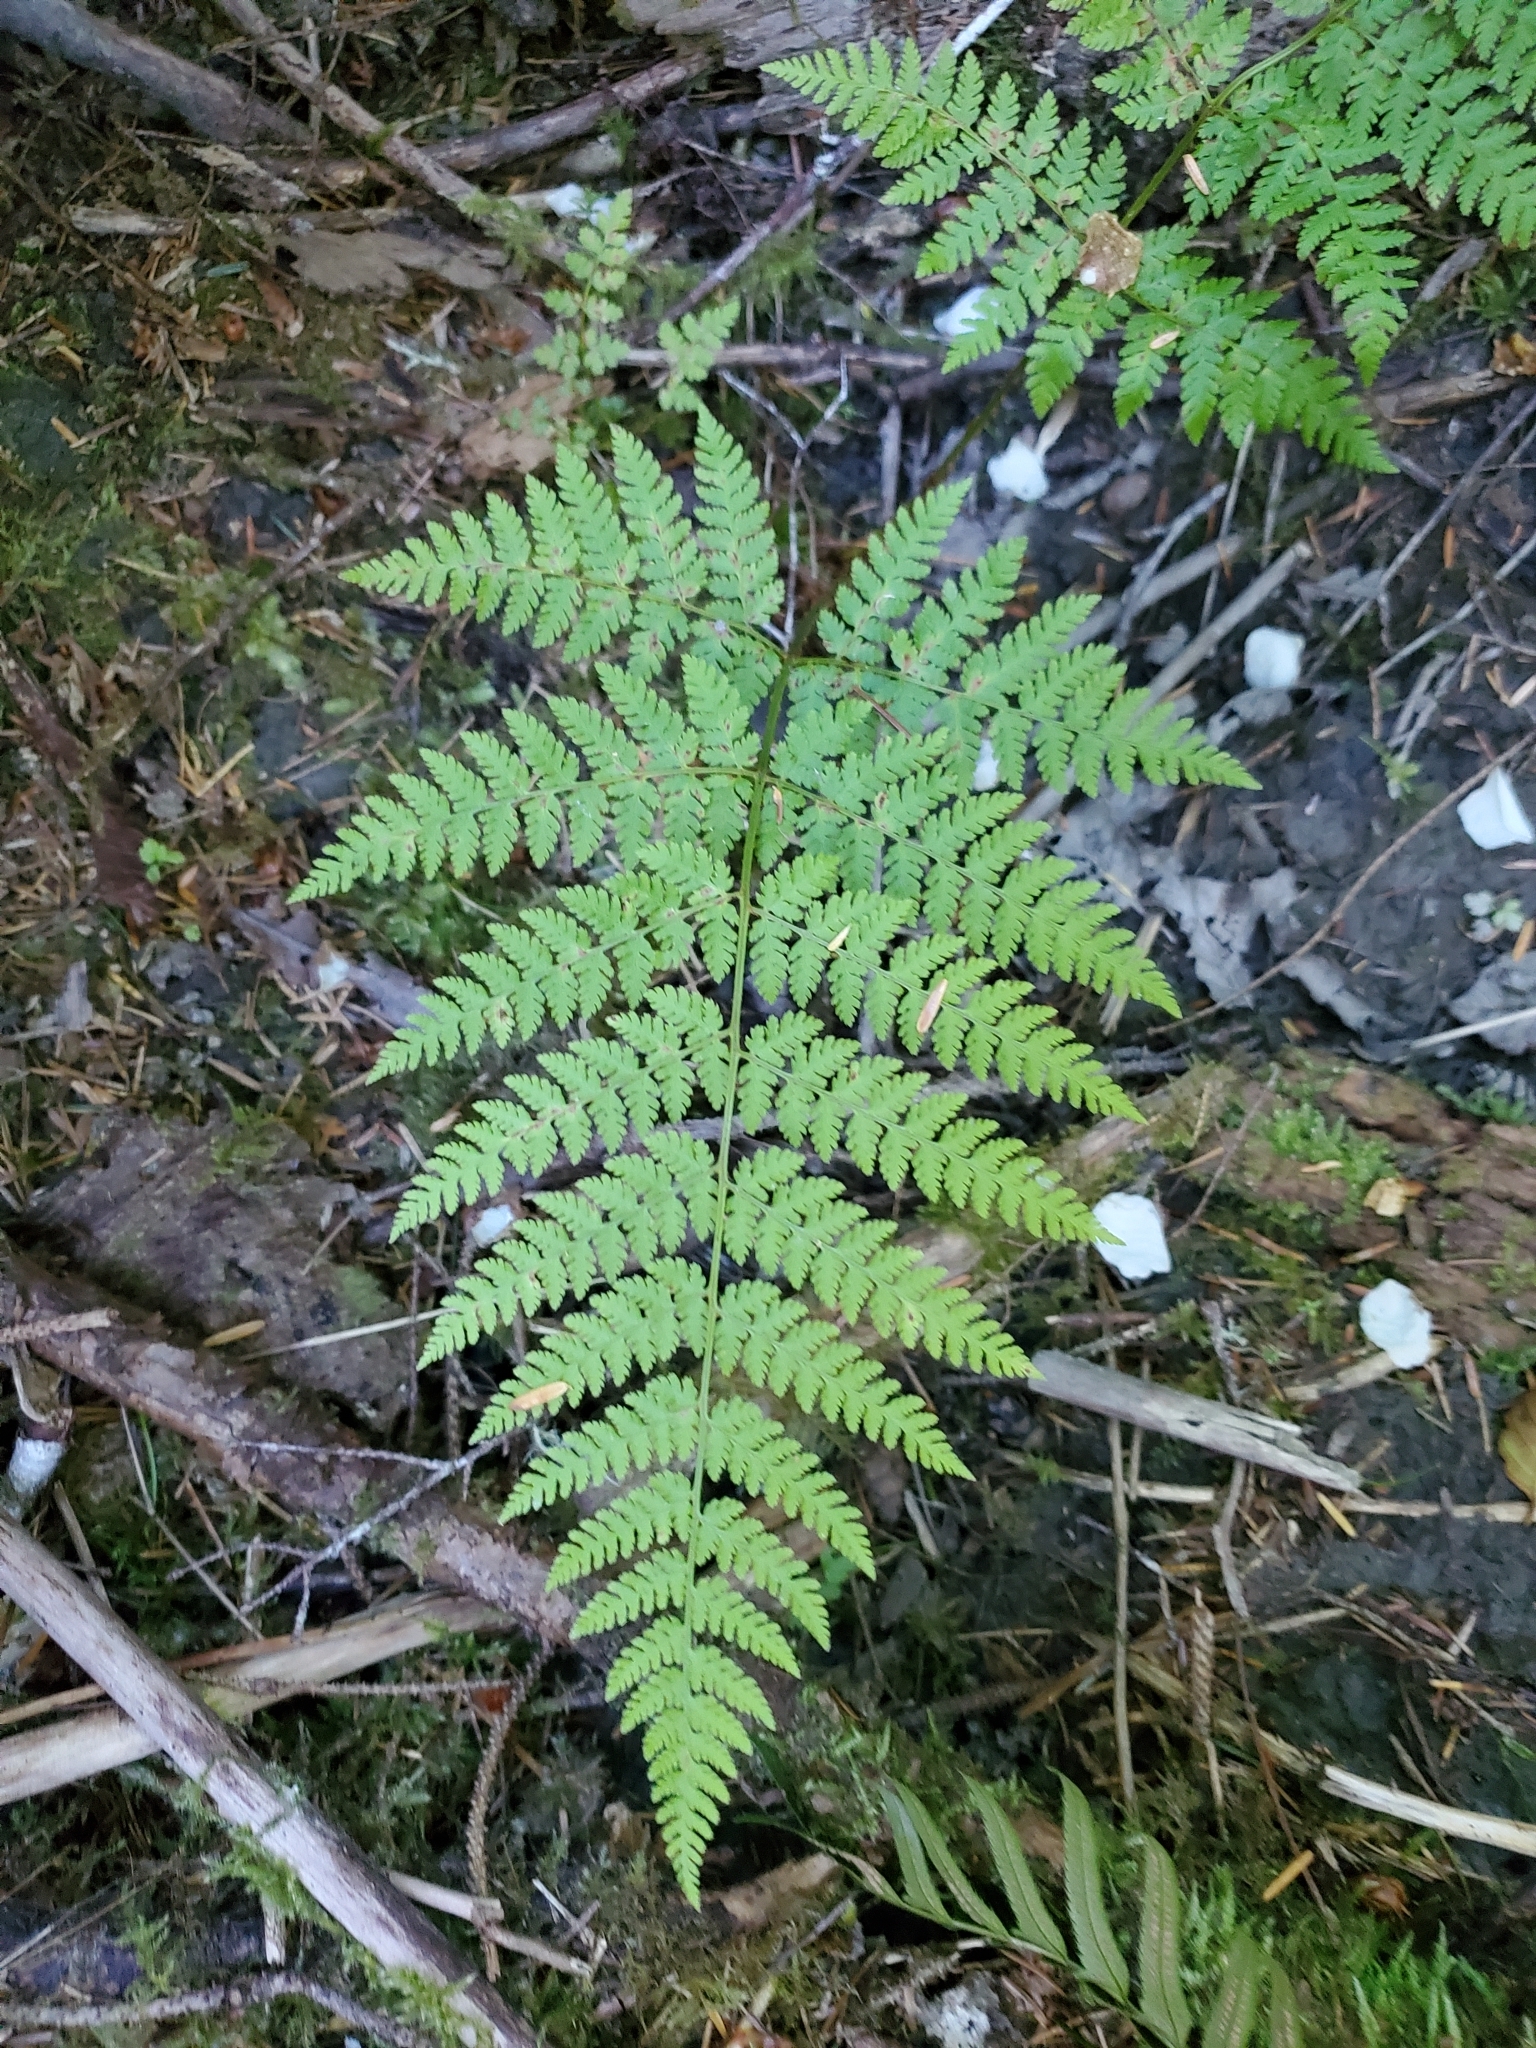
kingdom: Plantae
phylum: Tracheophyta
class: Polypodiopsida
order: Polypodiales
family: Dryopteridaceae
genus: Dryopteris
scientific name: Dryopteris expansa
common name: Northern buckler fern
